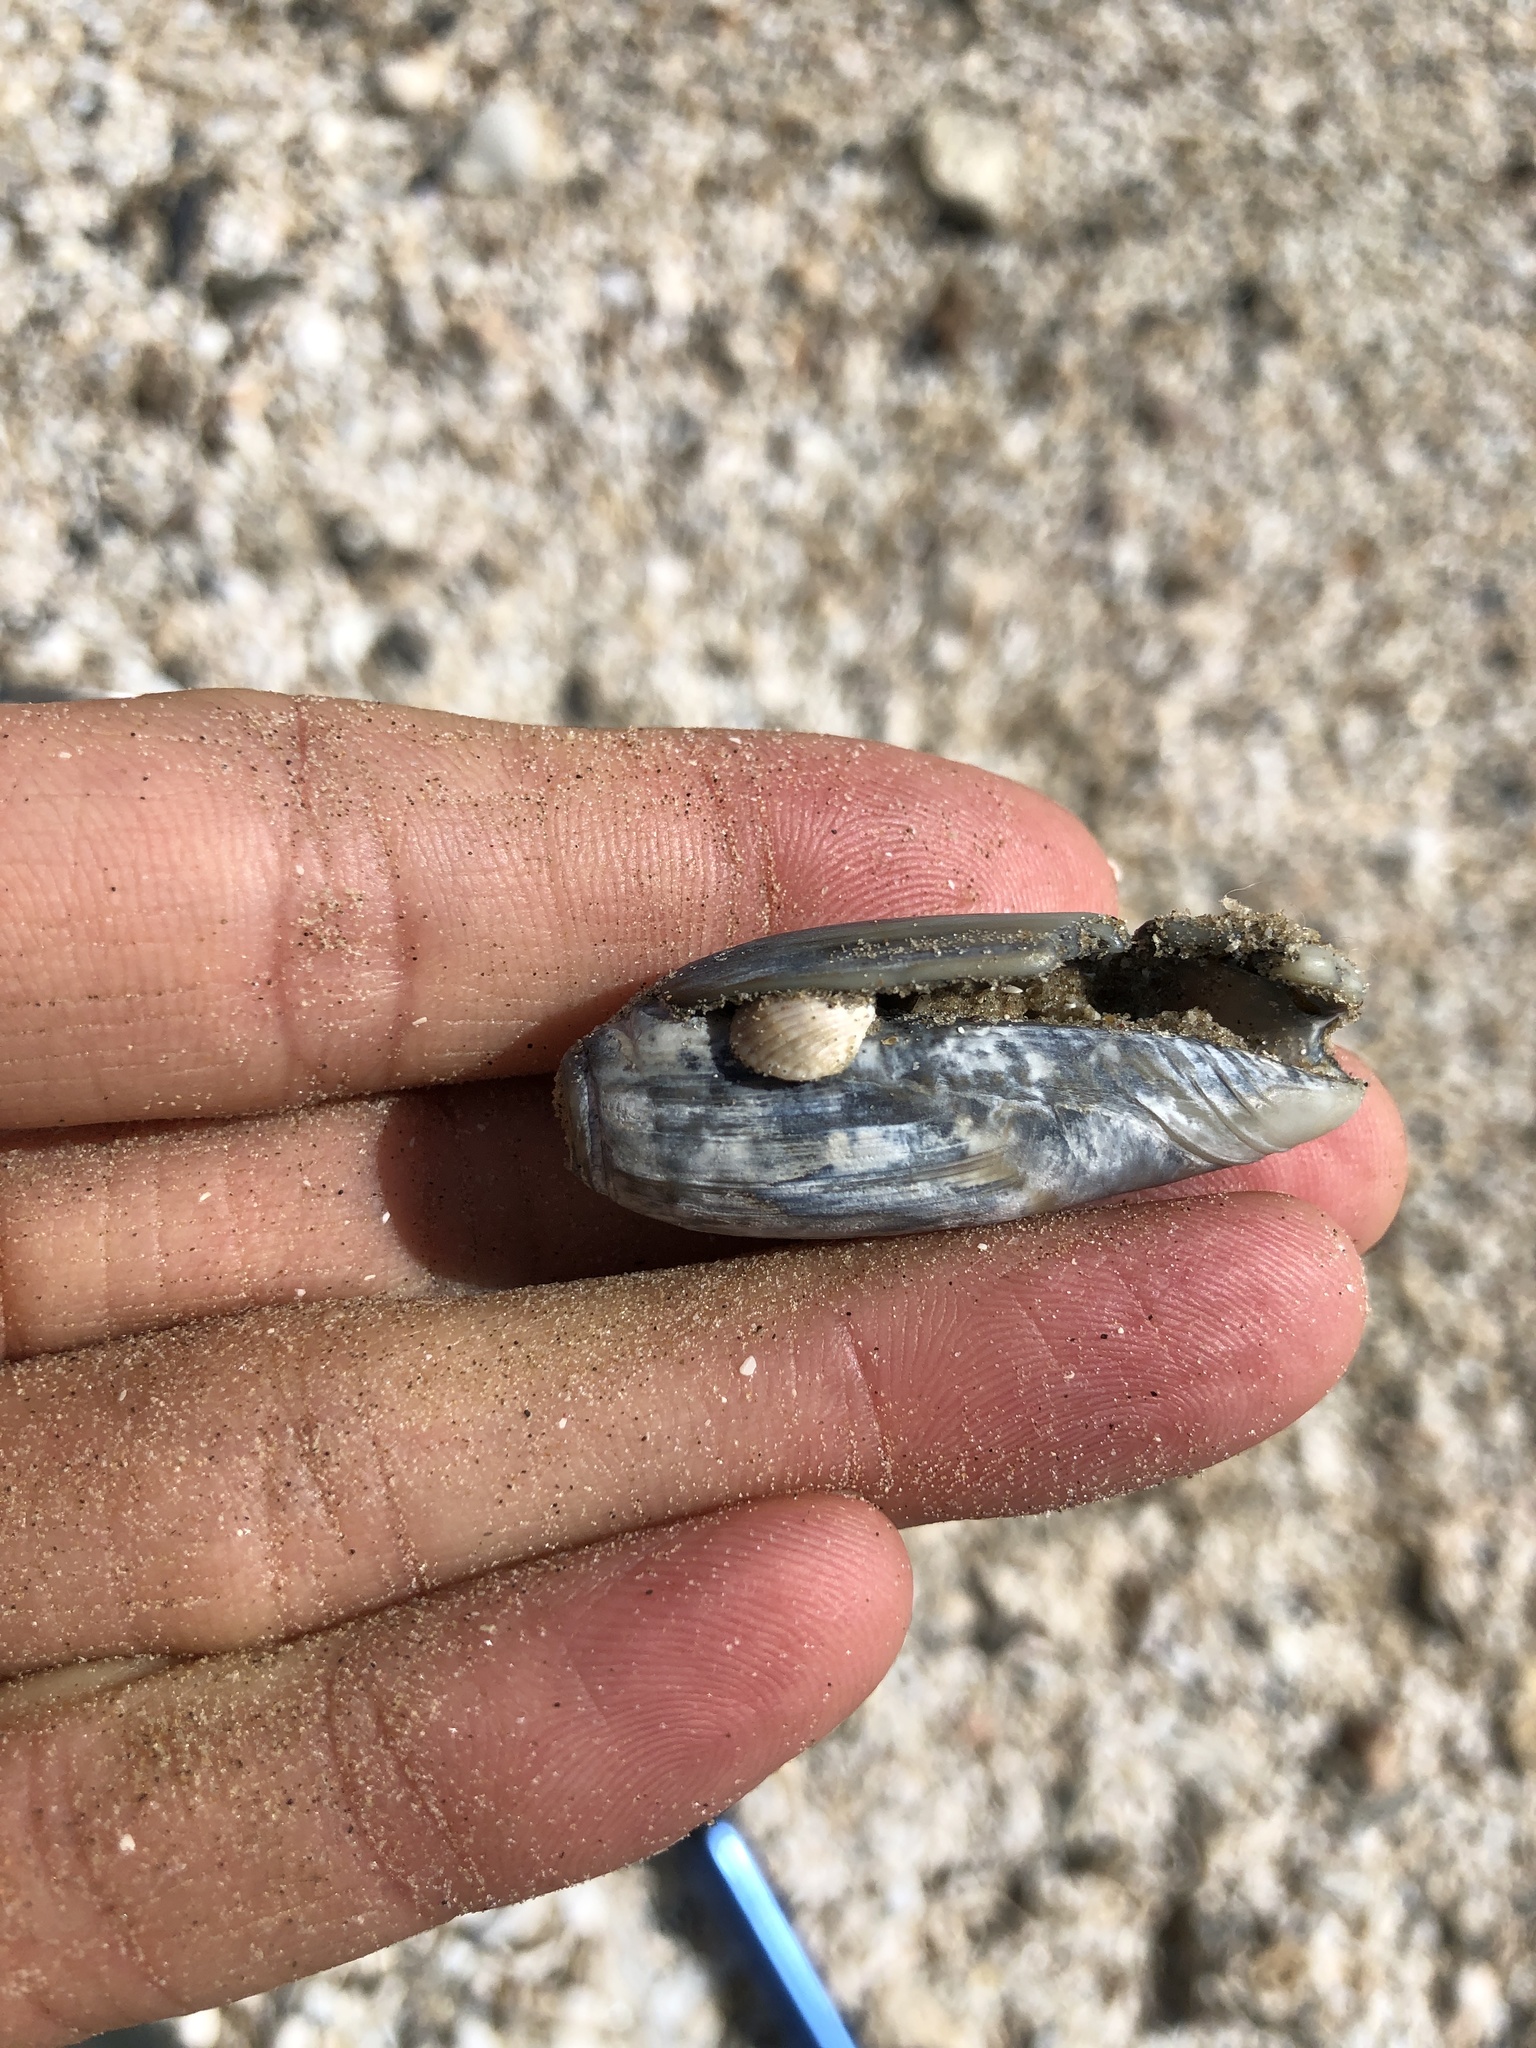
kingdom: Animalia
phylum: Mollusca
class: Gastropoda
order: Neogastropoda
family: Olividae
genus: Oliva
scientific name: Oliva sayana
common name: Lettered olive
